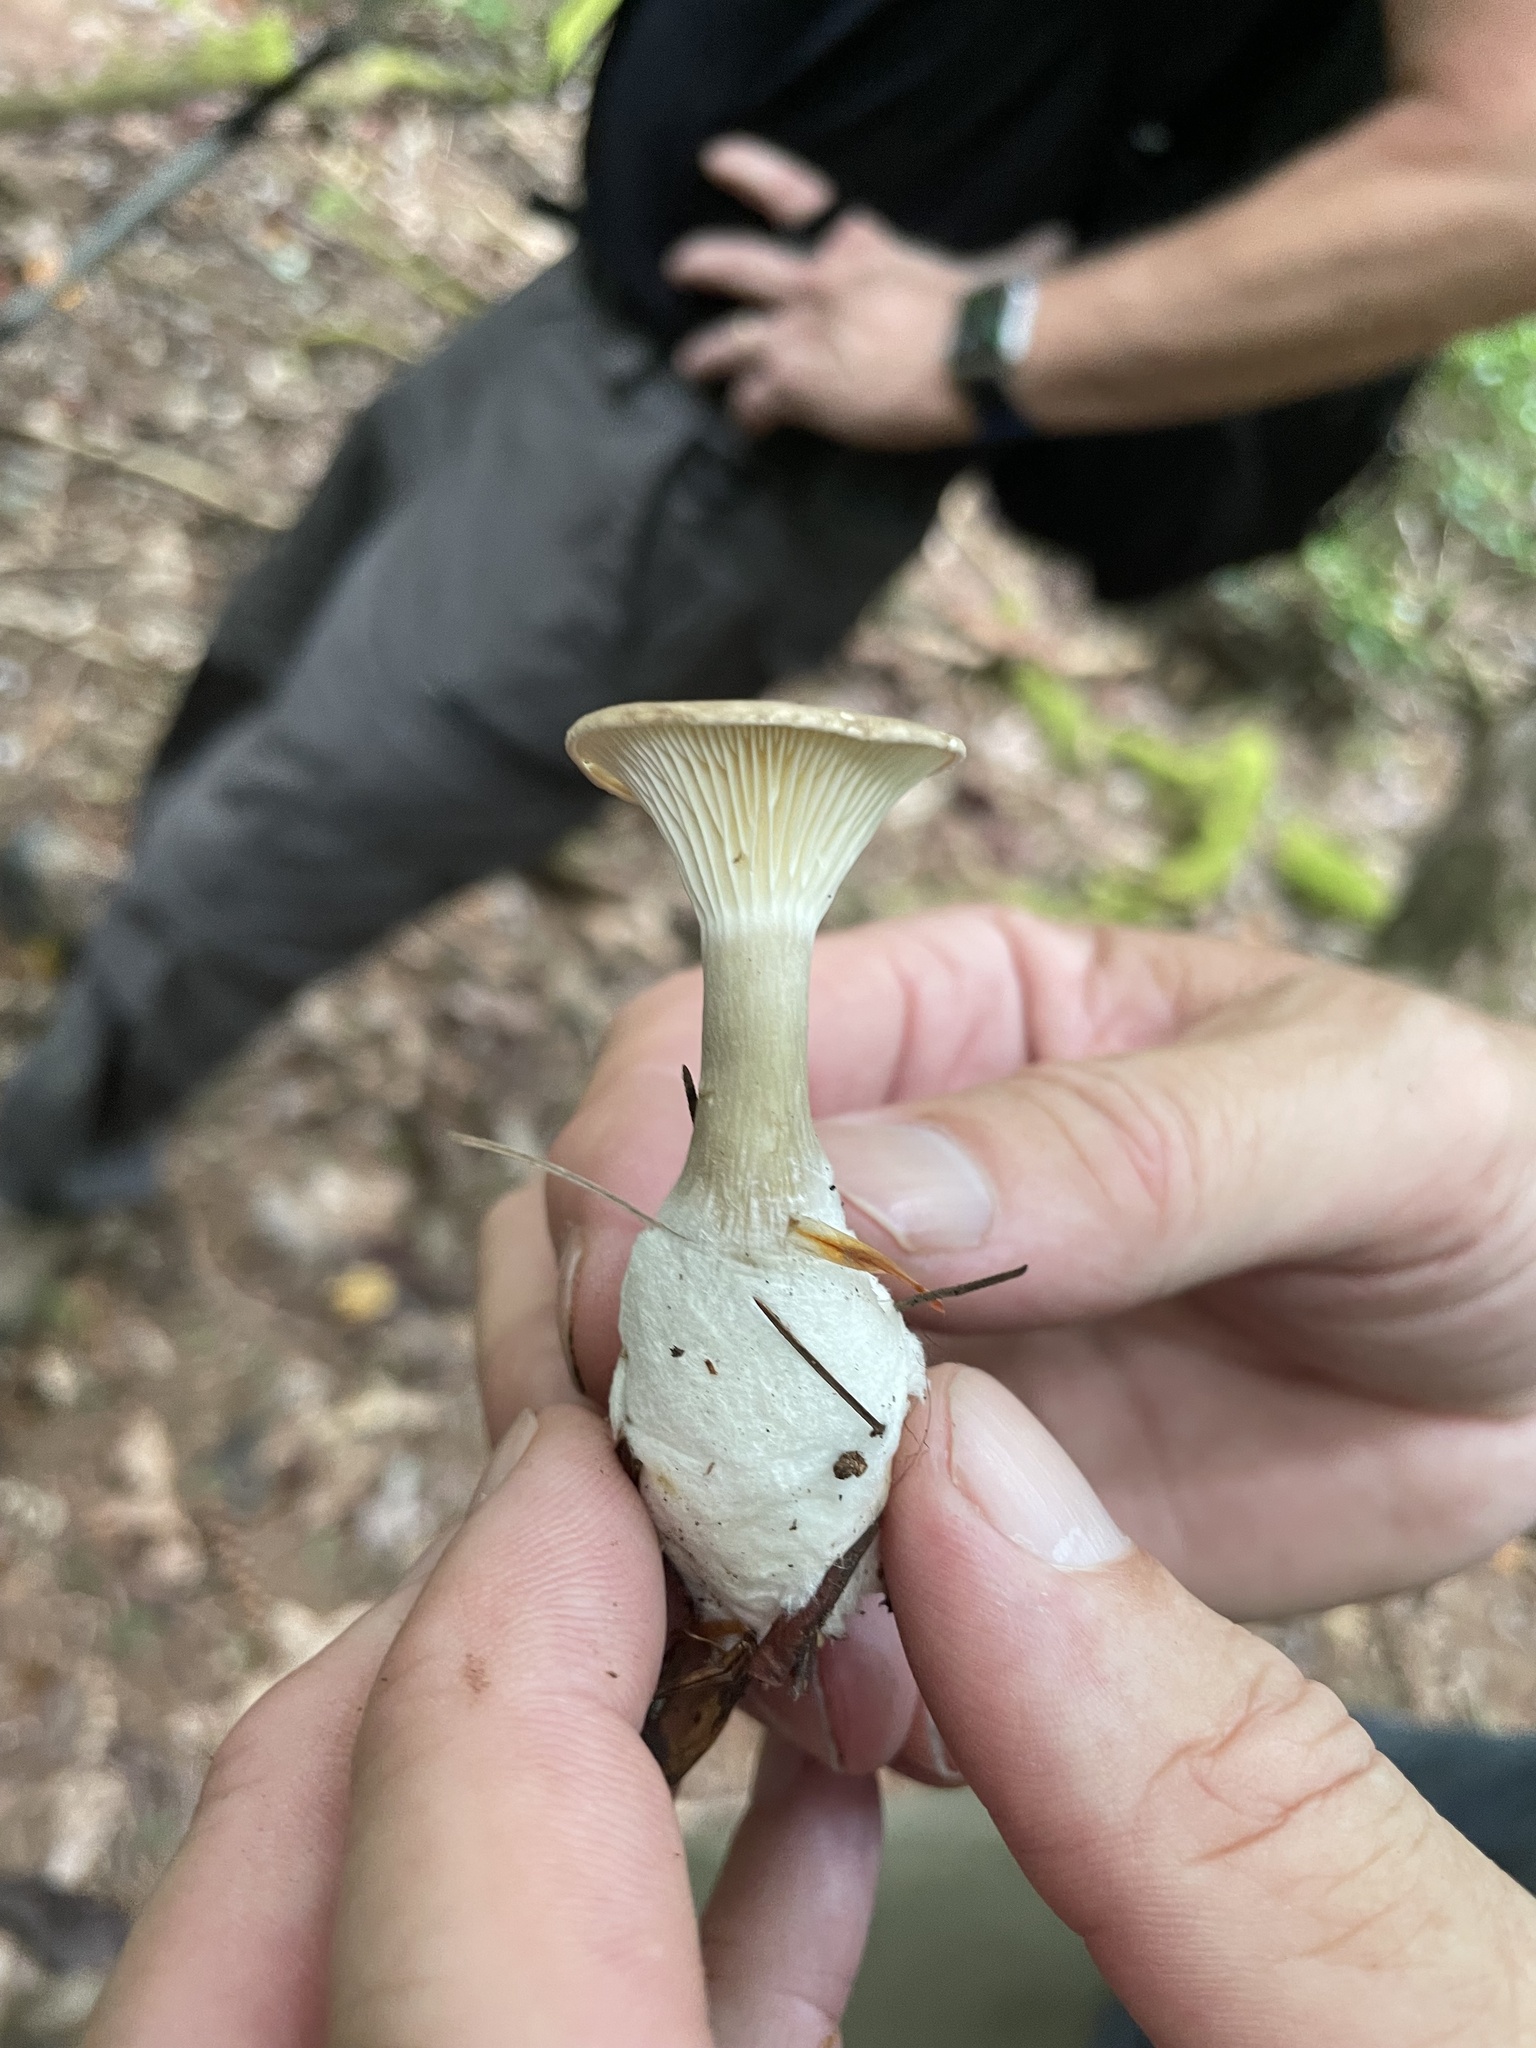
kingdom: Fungi
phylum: Basidiomycota
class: Agaricomycetes
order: Agaricales
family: Hygrophoraceae
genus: Ampulloclitocybe
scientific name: Ampulloclitocybe clavipes
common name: Club foot
